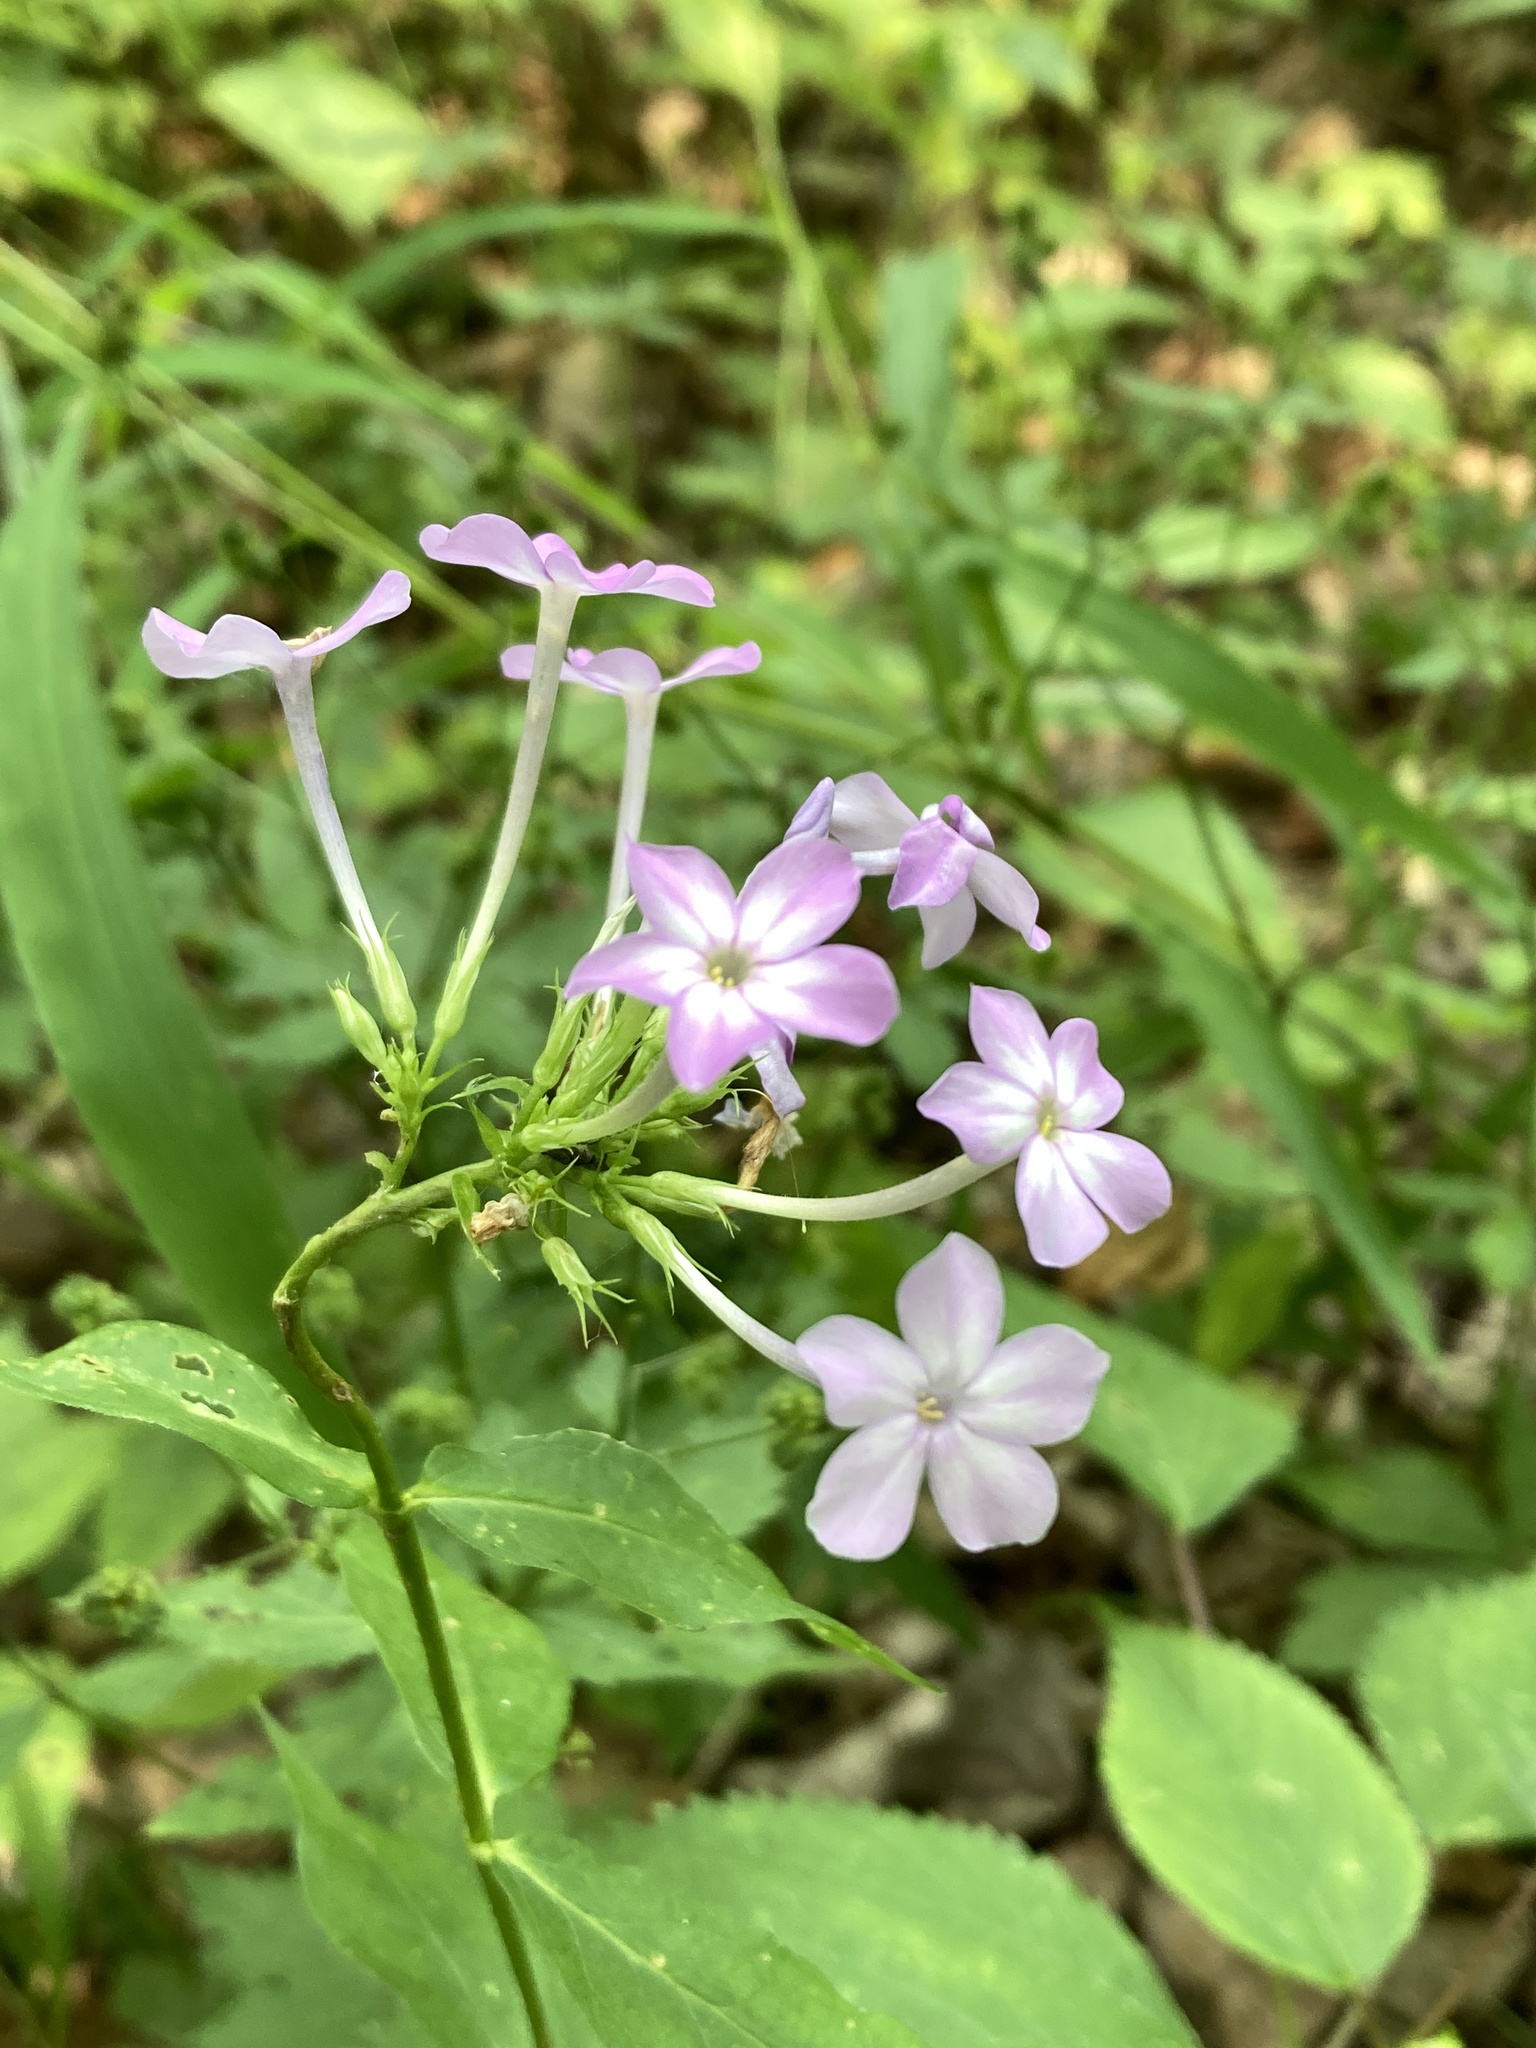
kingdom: Plantae
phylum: Tracheophyta
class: Magnoliopsida
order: Ericales
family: Polemoniaceae
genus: Phlox
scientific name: Phlox paniculata
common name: Fall phlox
